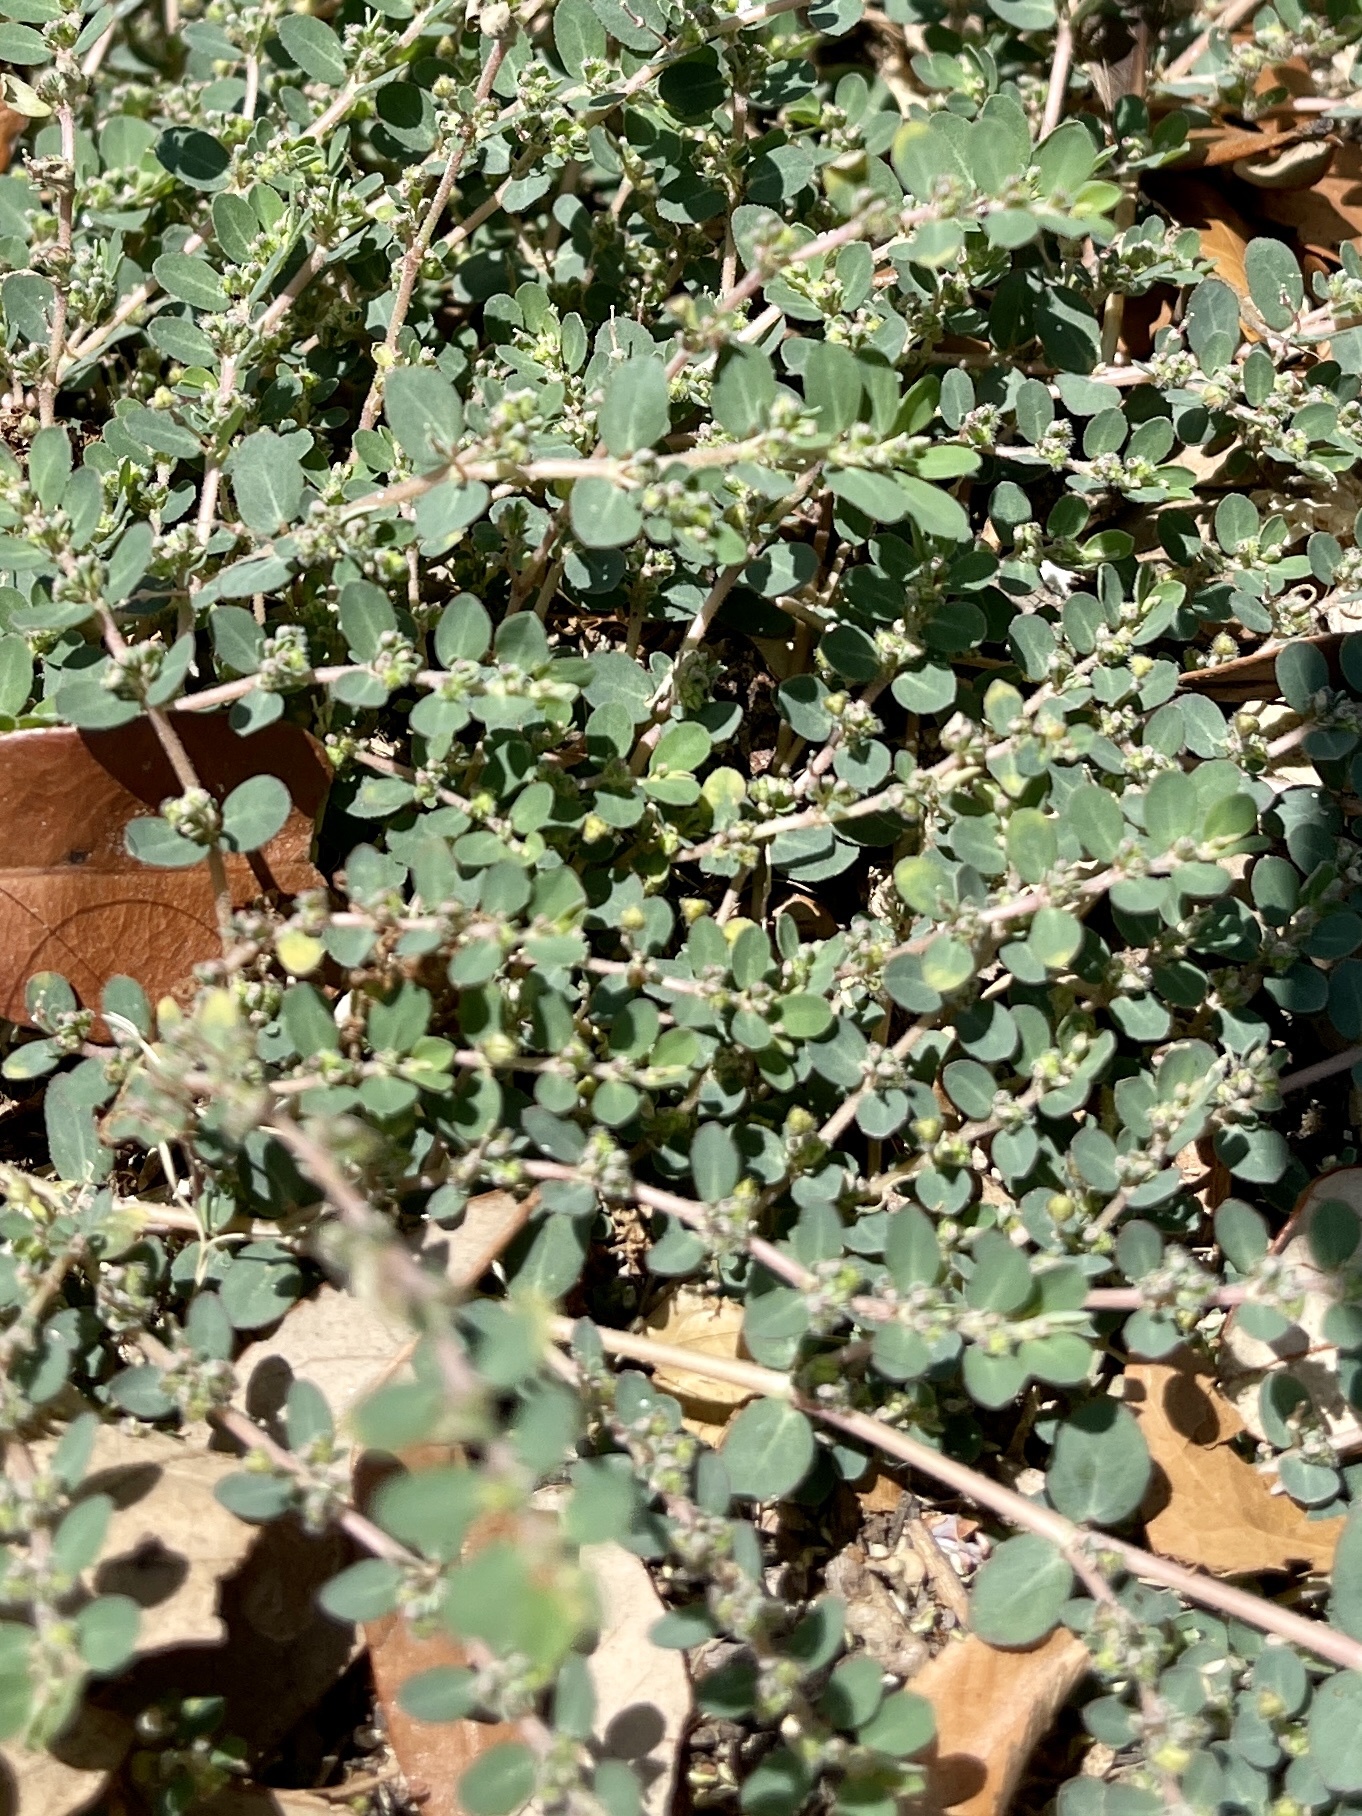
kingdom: Plantae
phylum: Tracheophyta
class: Magnoliopsida
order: Malpighiales
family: Euphorbiaceae
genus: Euphorbia
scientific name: Euphorbia prostrata
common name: Prostrate sandmat
